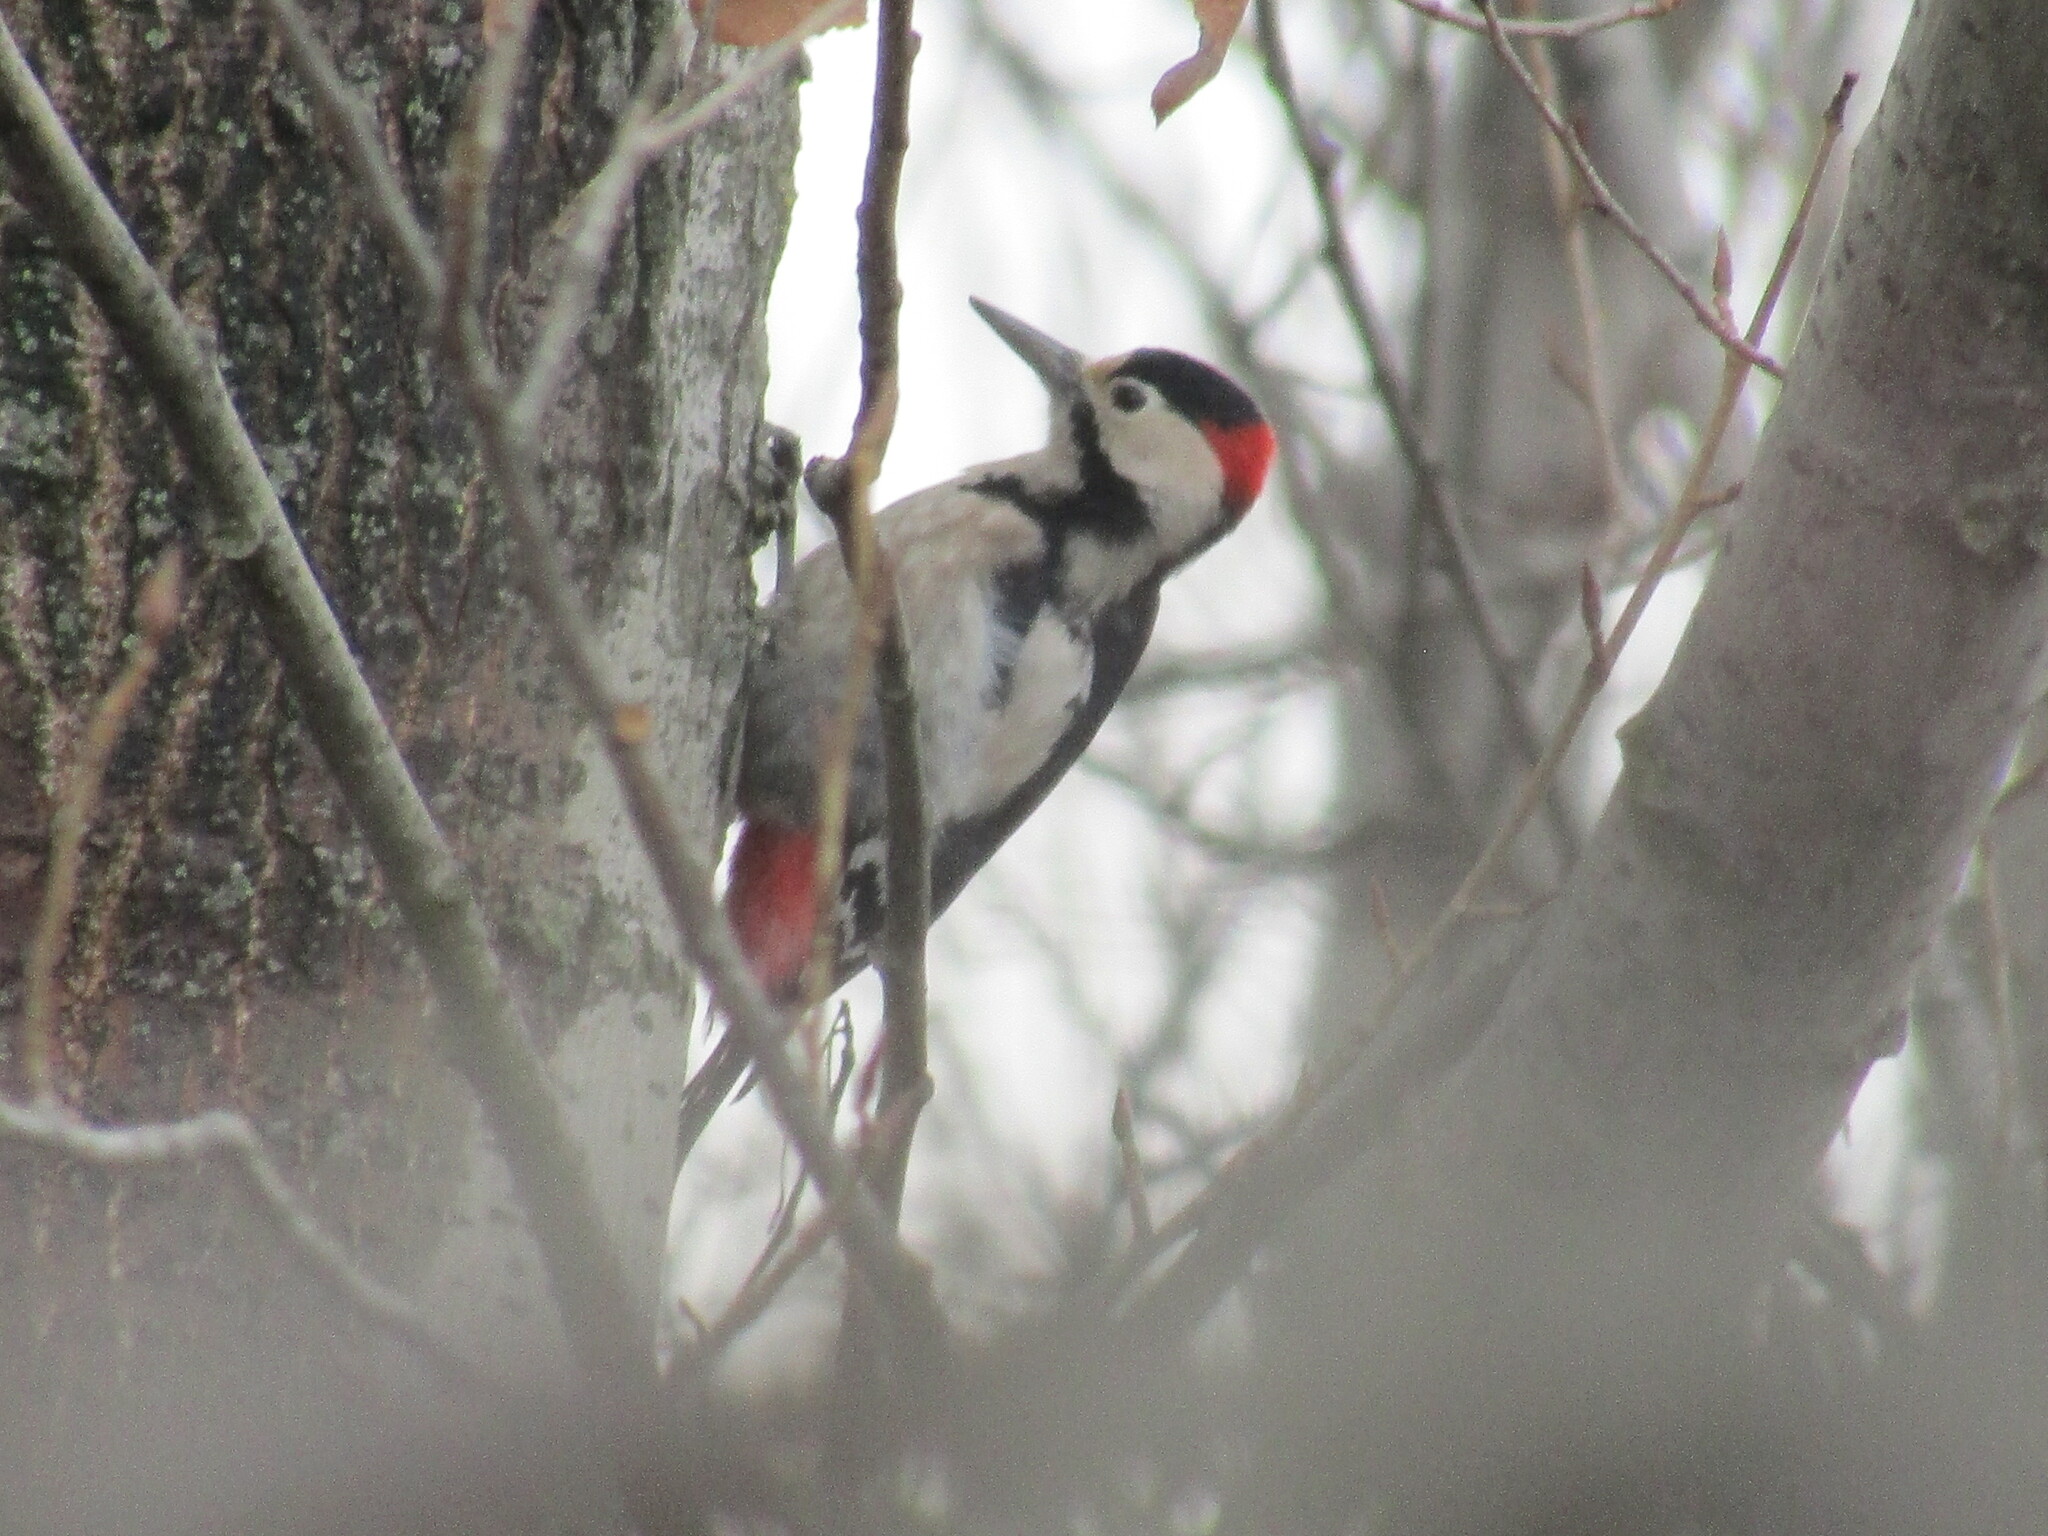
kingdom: Animalia
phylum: Chordata
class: Aves
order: Piciformes
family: Picidae
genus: Dendrocopos
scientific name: Dendrocopos syriacus
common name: Syrian woodpecker
